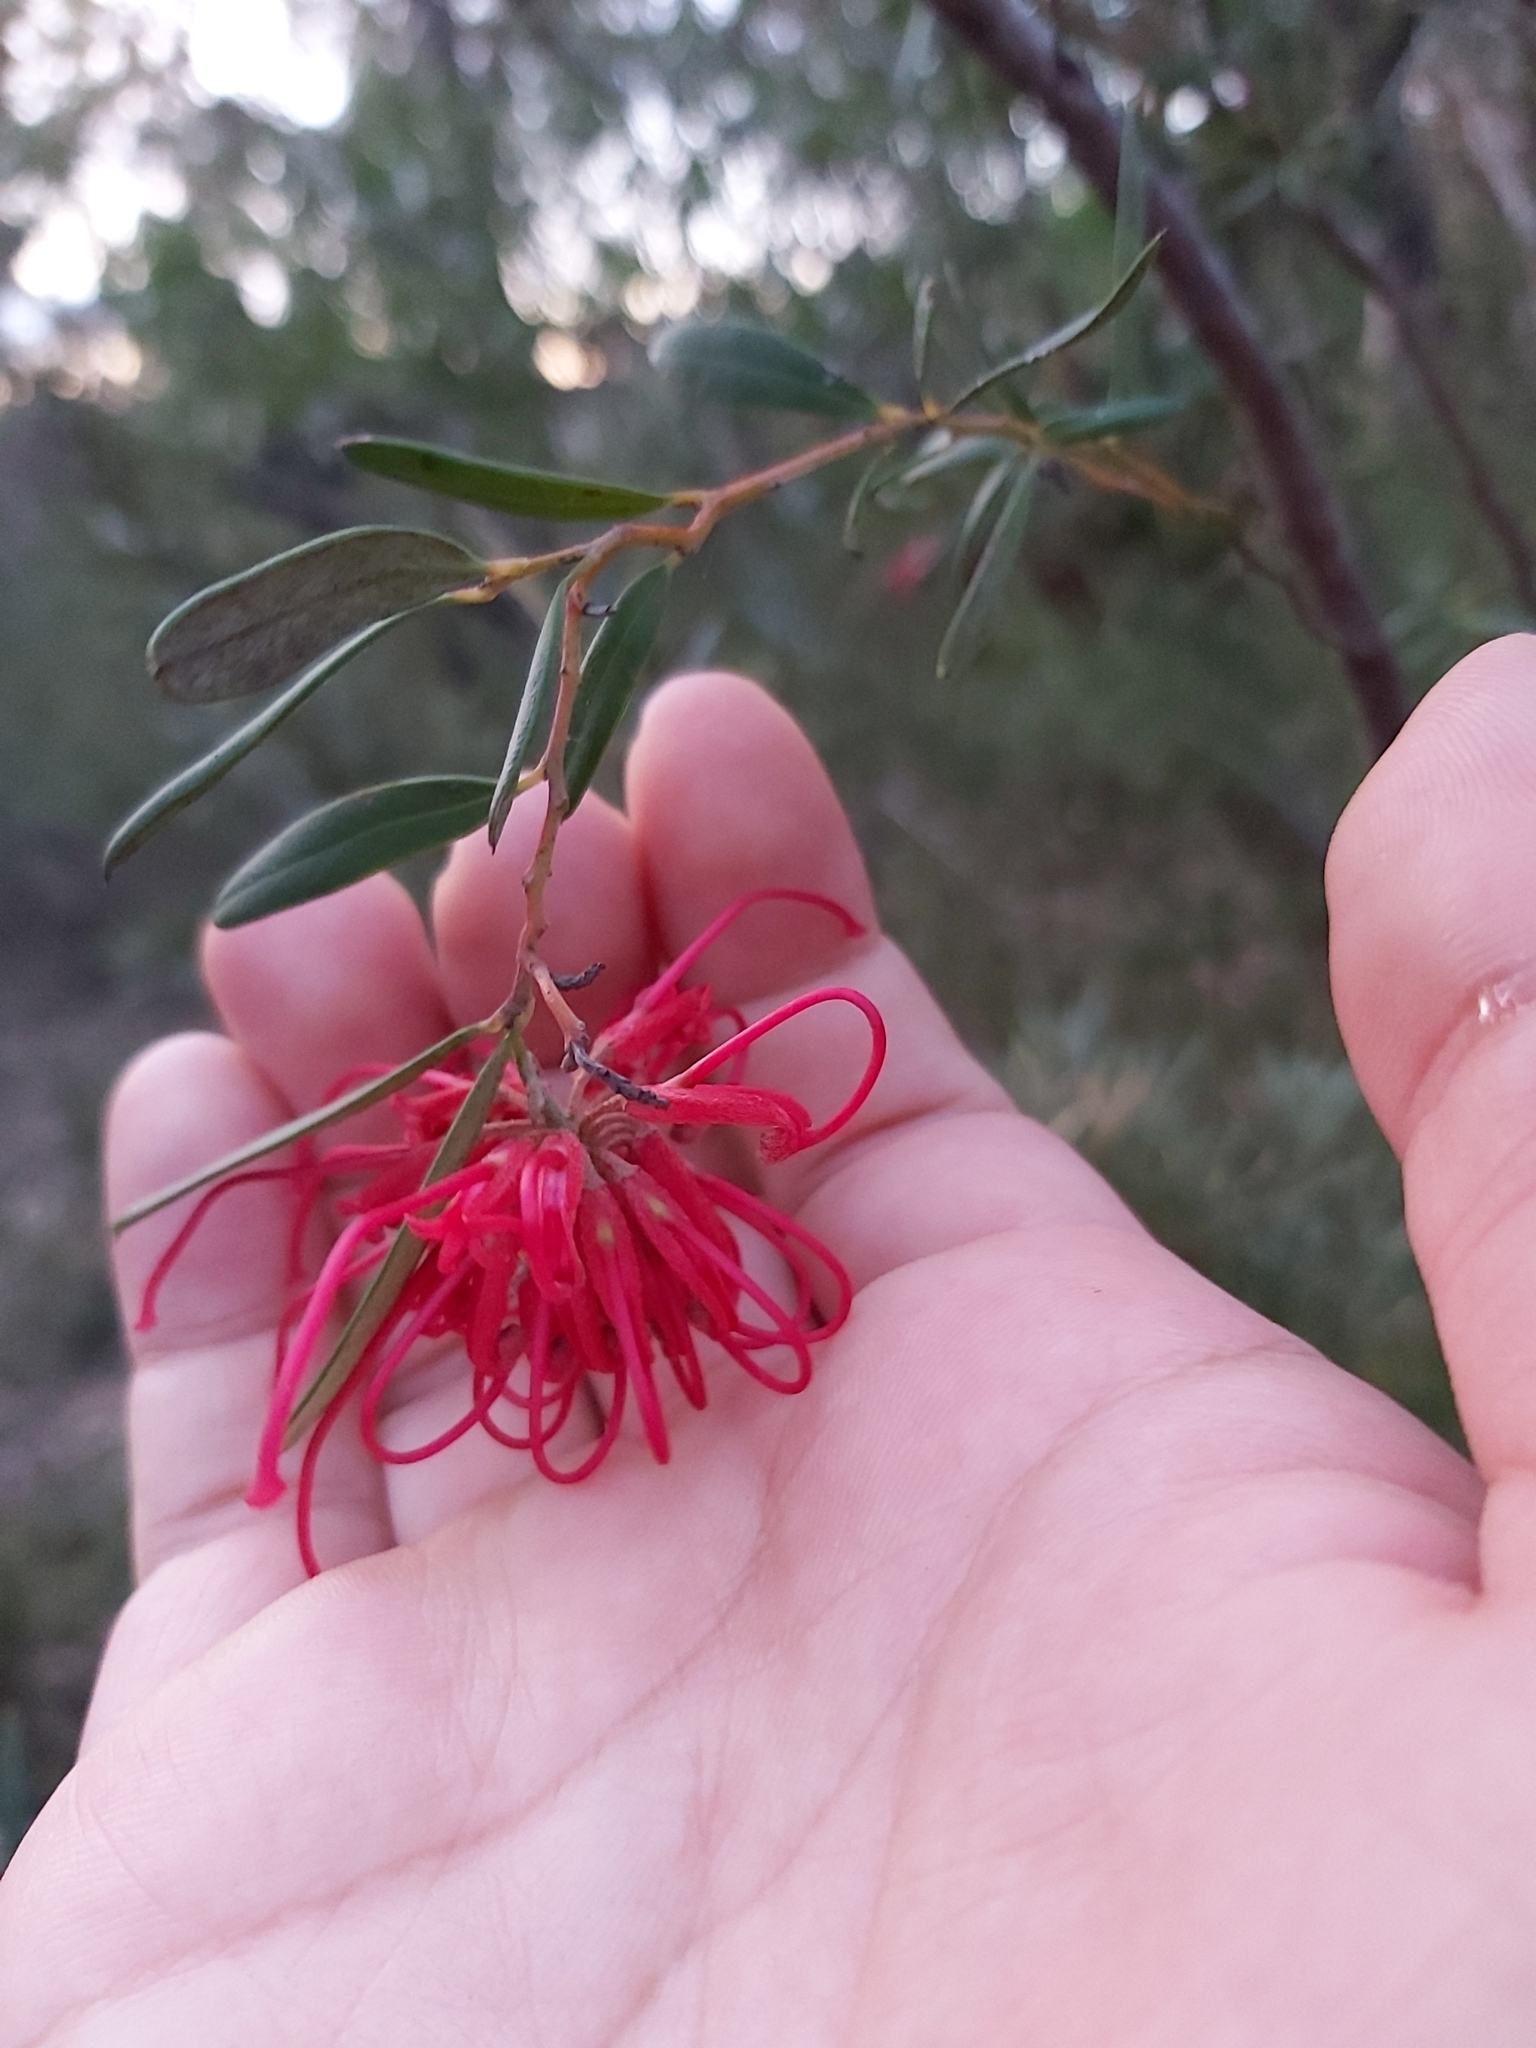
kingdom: Plantae
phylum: Tracheophyta
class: Magnoliopsida
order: Proteales
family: Proteaceae
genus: Grevillea
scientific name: Grevillea speciosa
